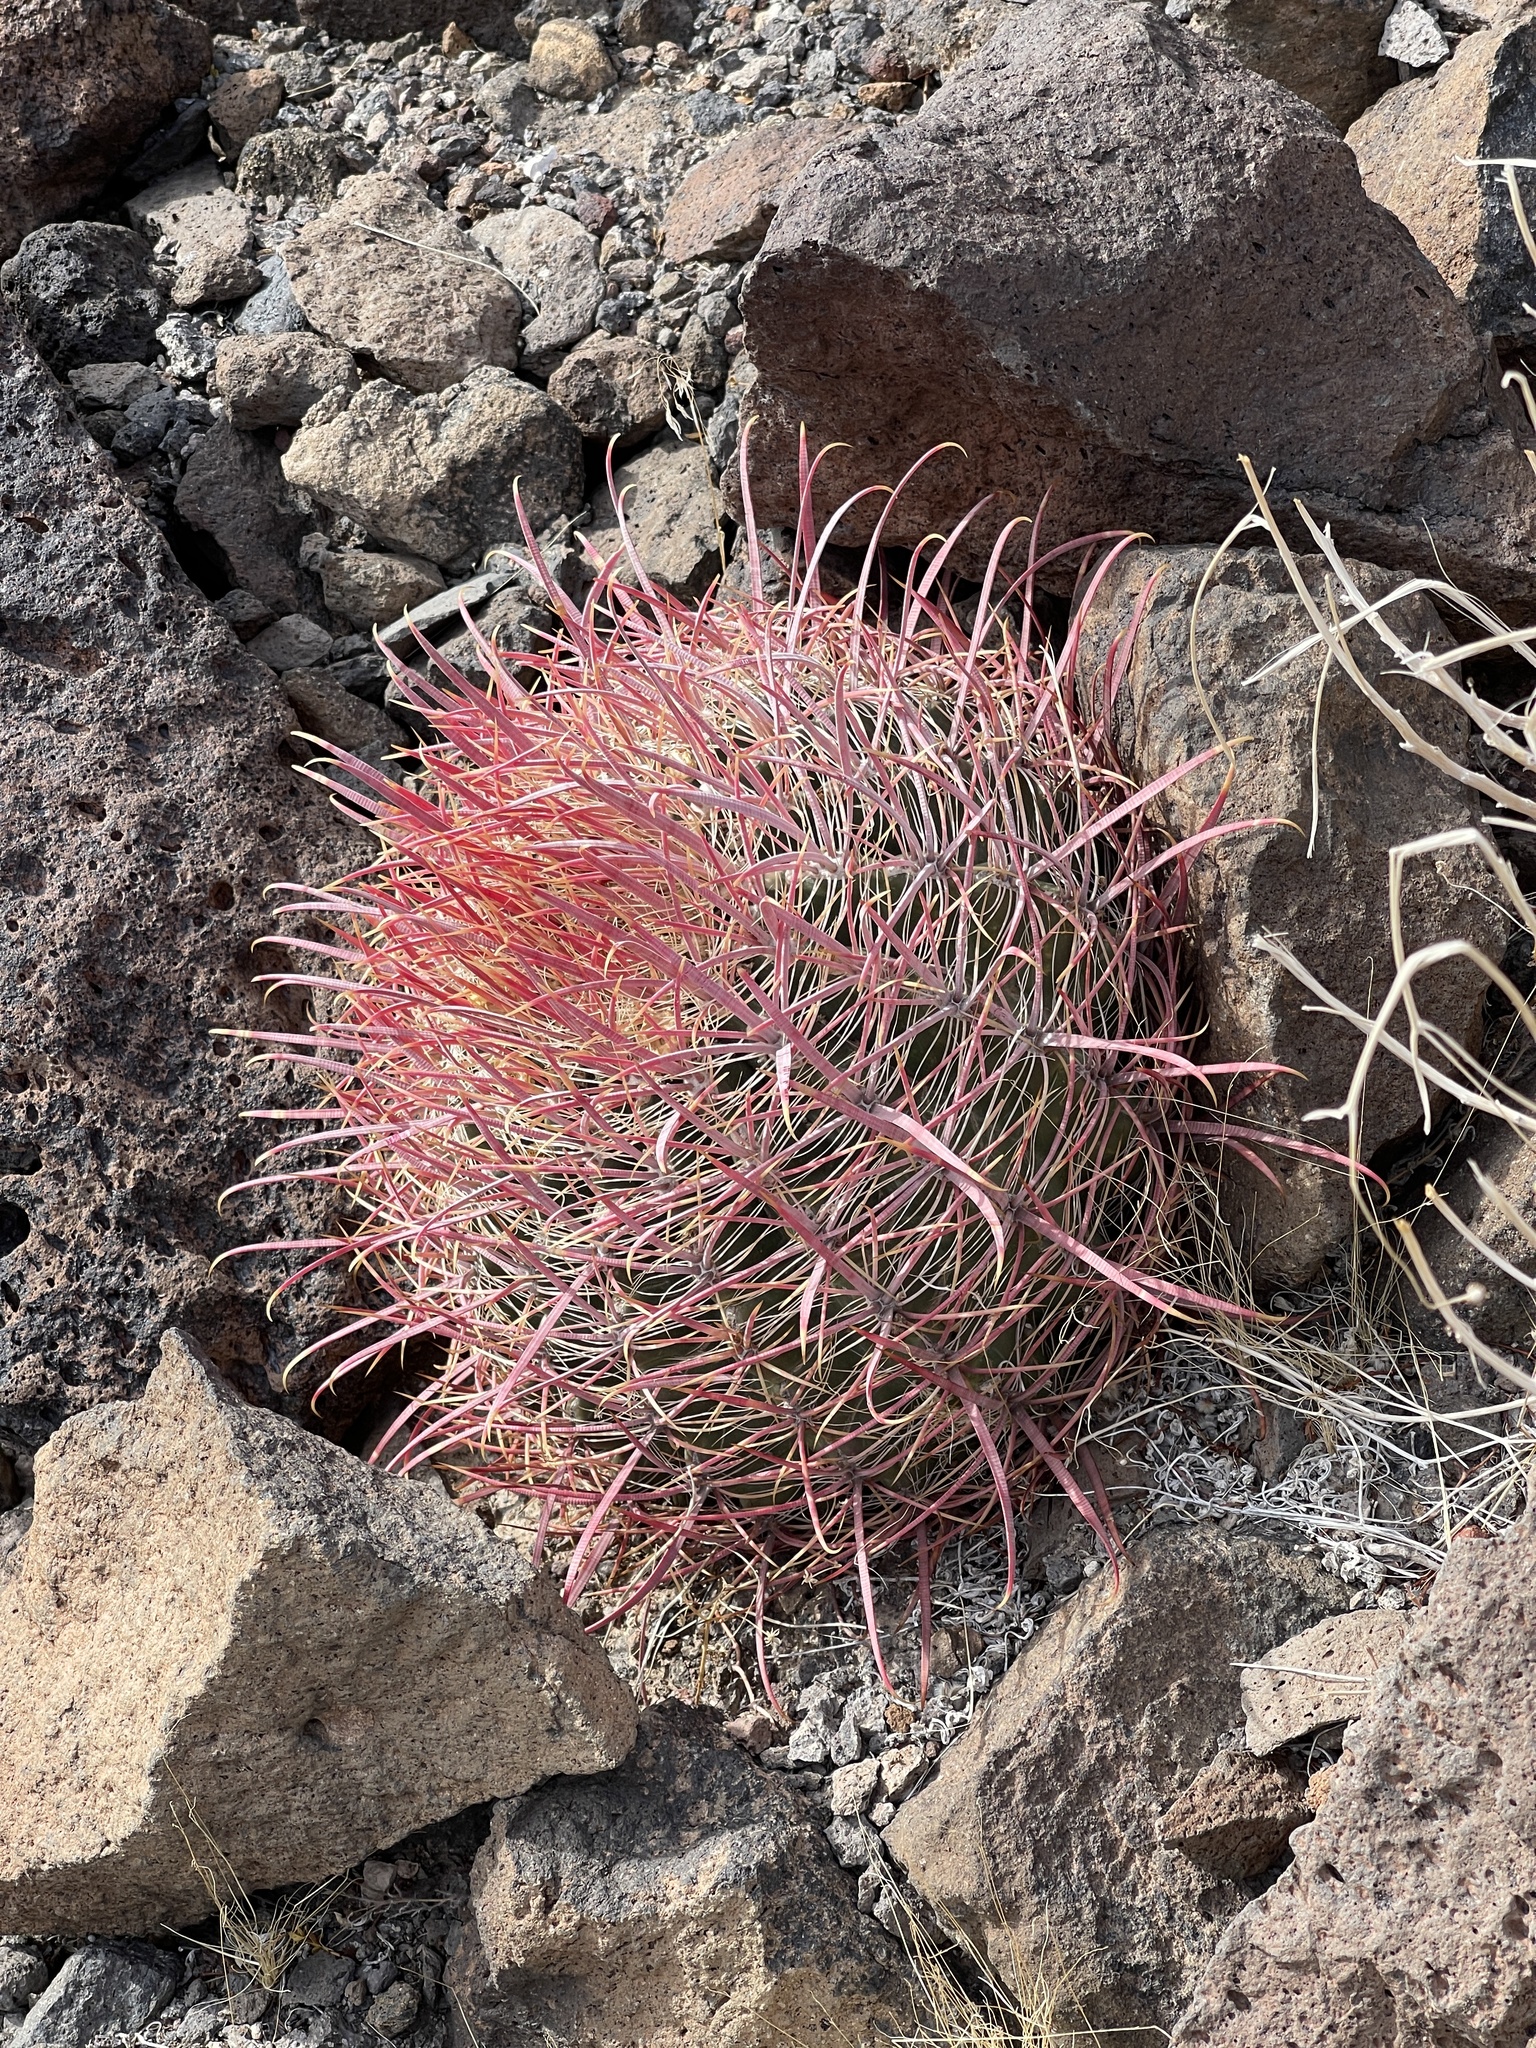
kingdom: Plantae
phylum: Tracheophyta
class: Magnoliopsida
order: Caryophyllales
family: Cactaceae
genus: Ferocactus
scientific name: Ferocactus cylindraceus
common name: California barrel cactus
